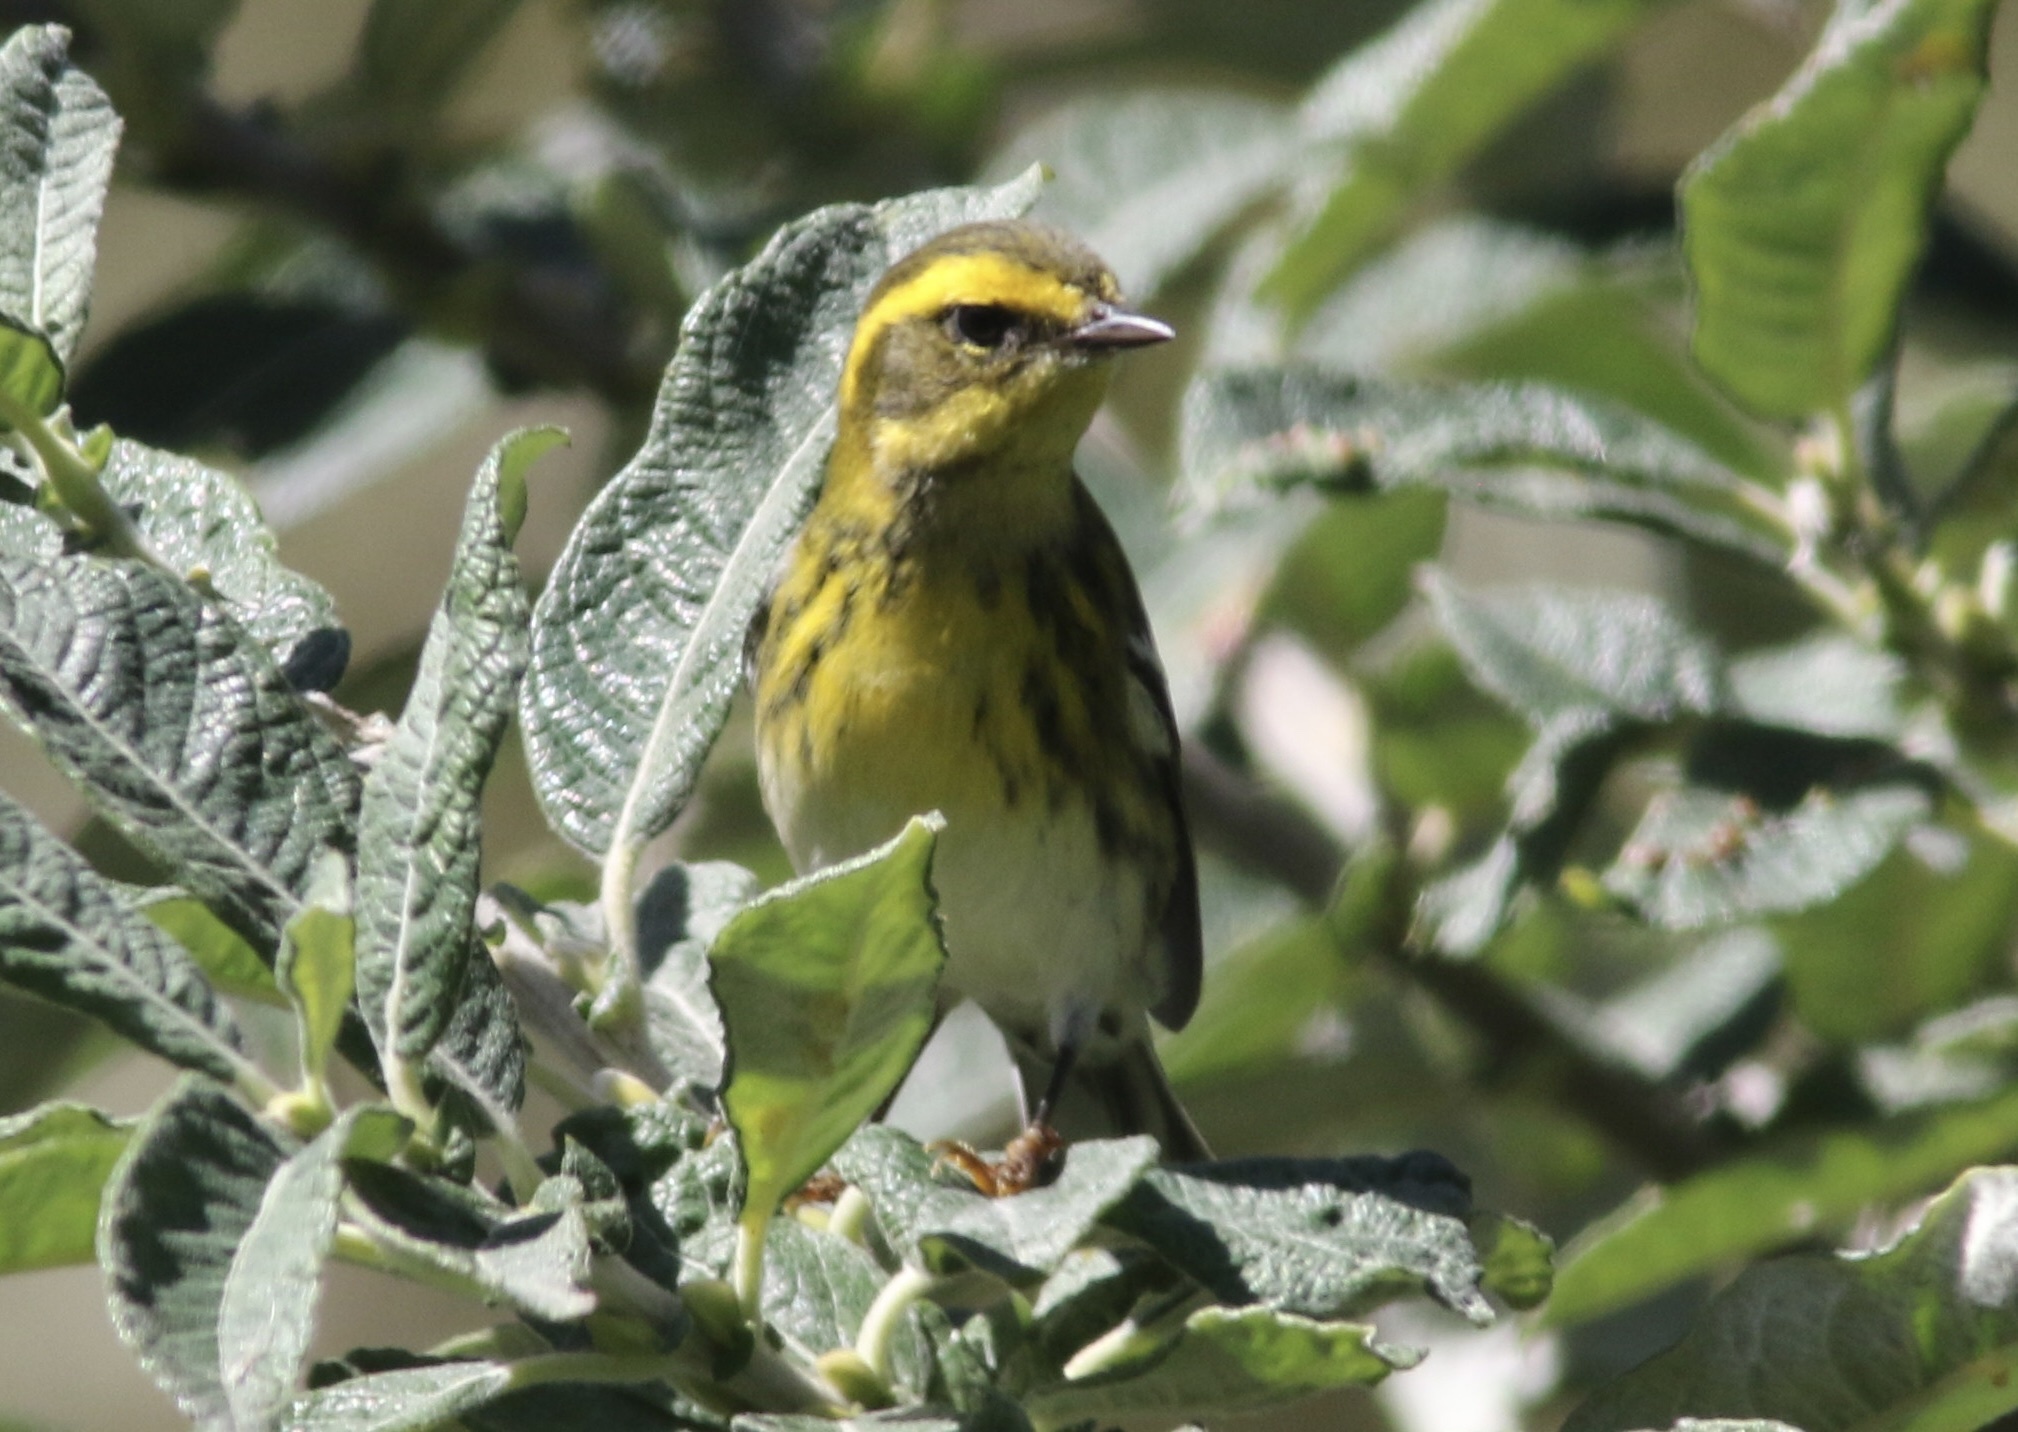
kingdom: Animalia
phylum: Chordata
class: Aves
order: Passeriformes
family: Parulidae
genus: Setophaga
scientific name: Setophaga townsendi
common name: Townsend's warbler
